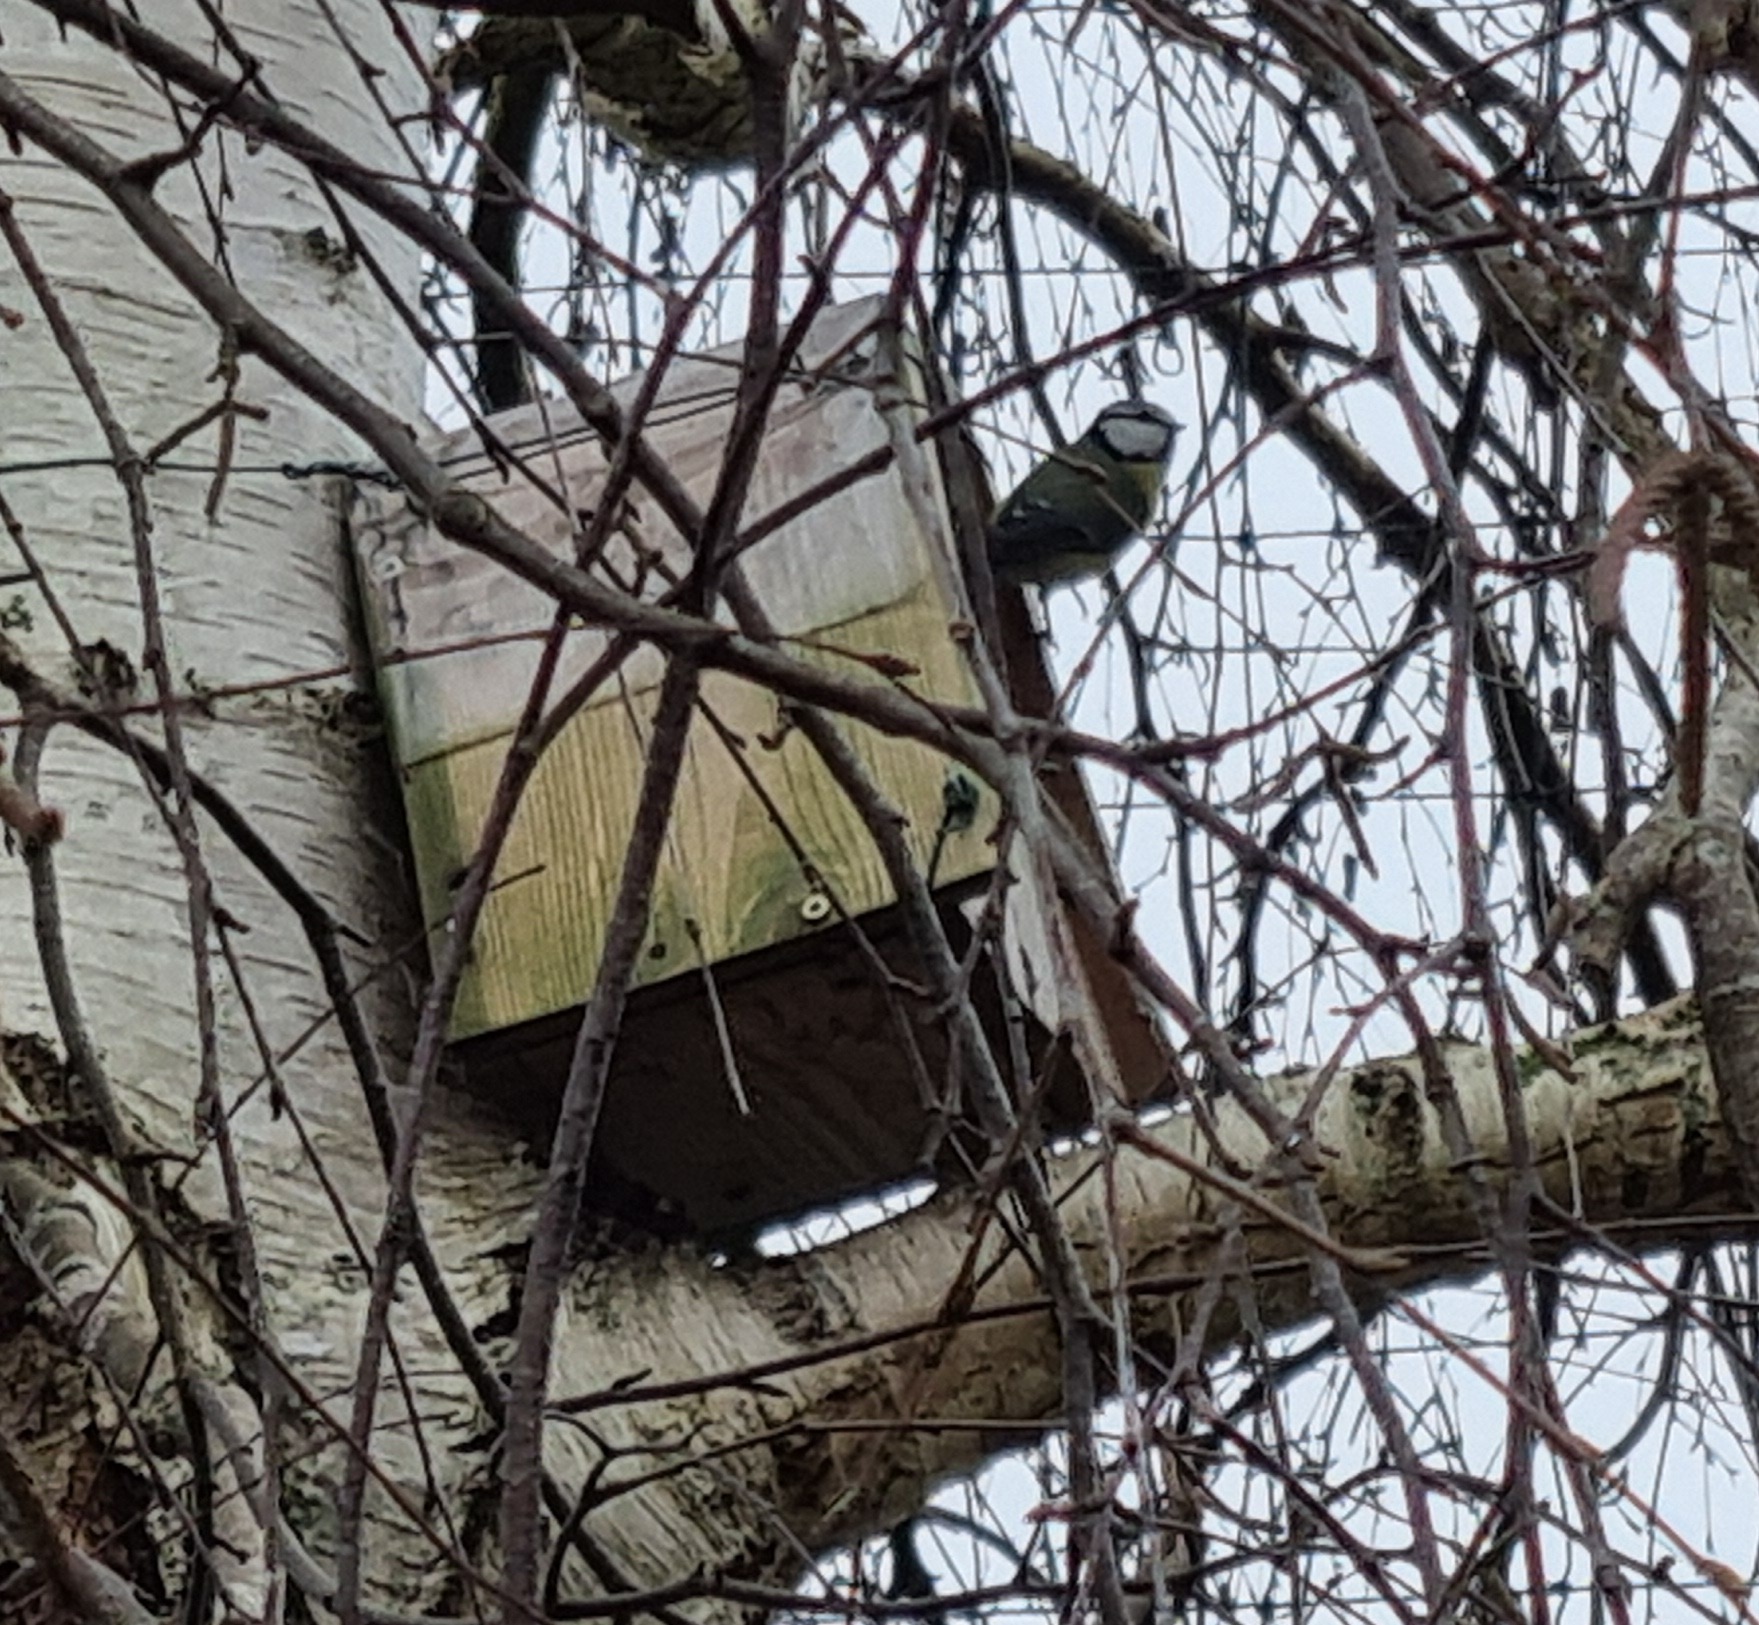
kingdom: Animalia
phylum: Chordata
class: Aves
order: Passeriformes
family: Paridae
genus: Cyanistes
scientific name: Cyanistes caeruleus
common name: Eurasian blue tit
